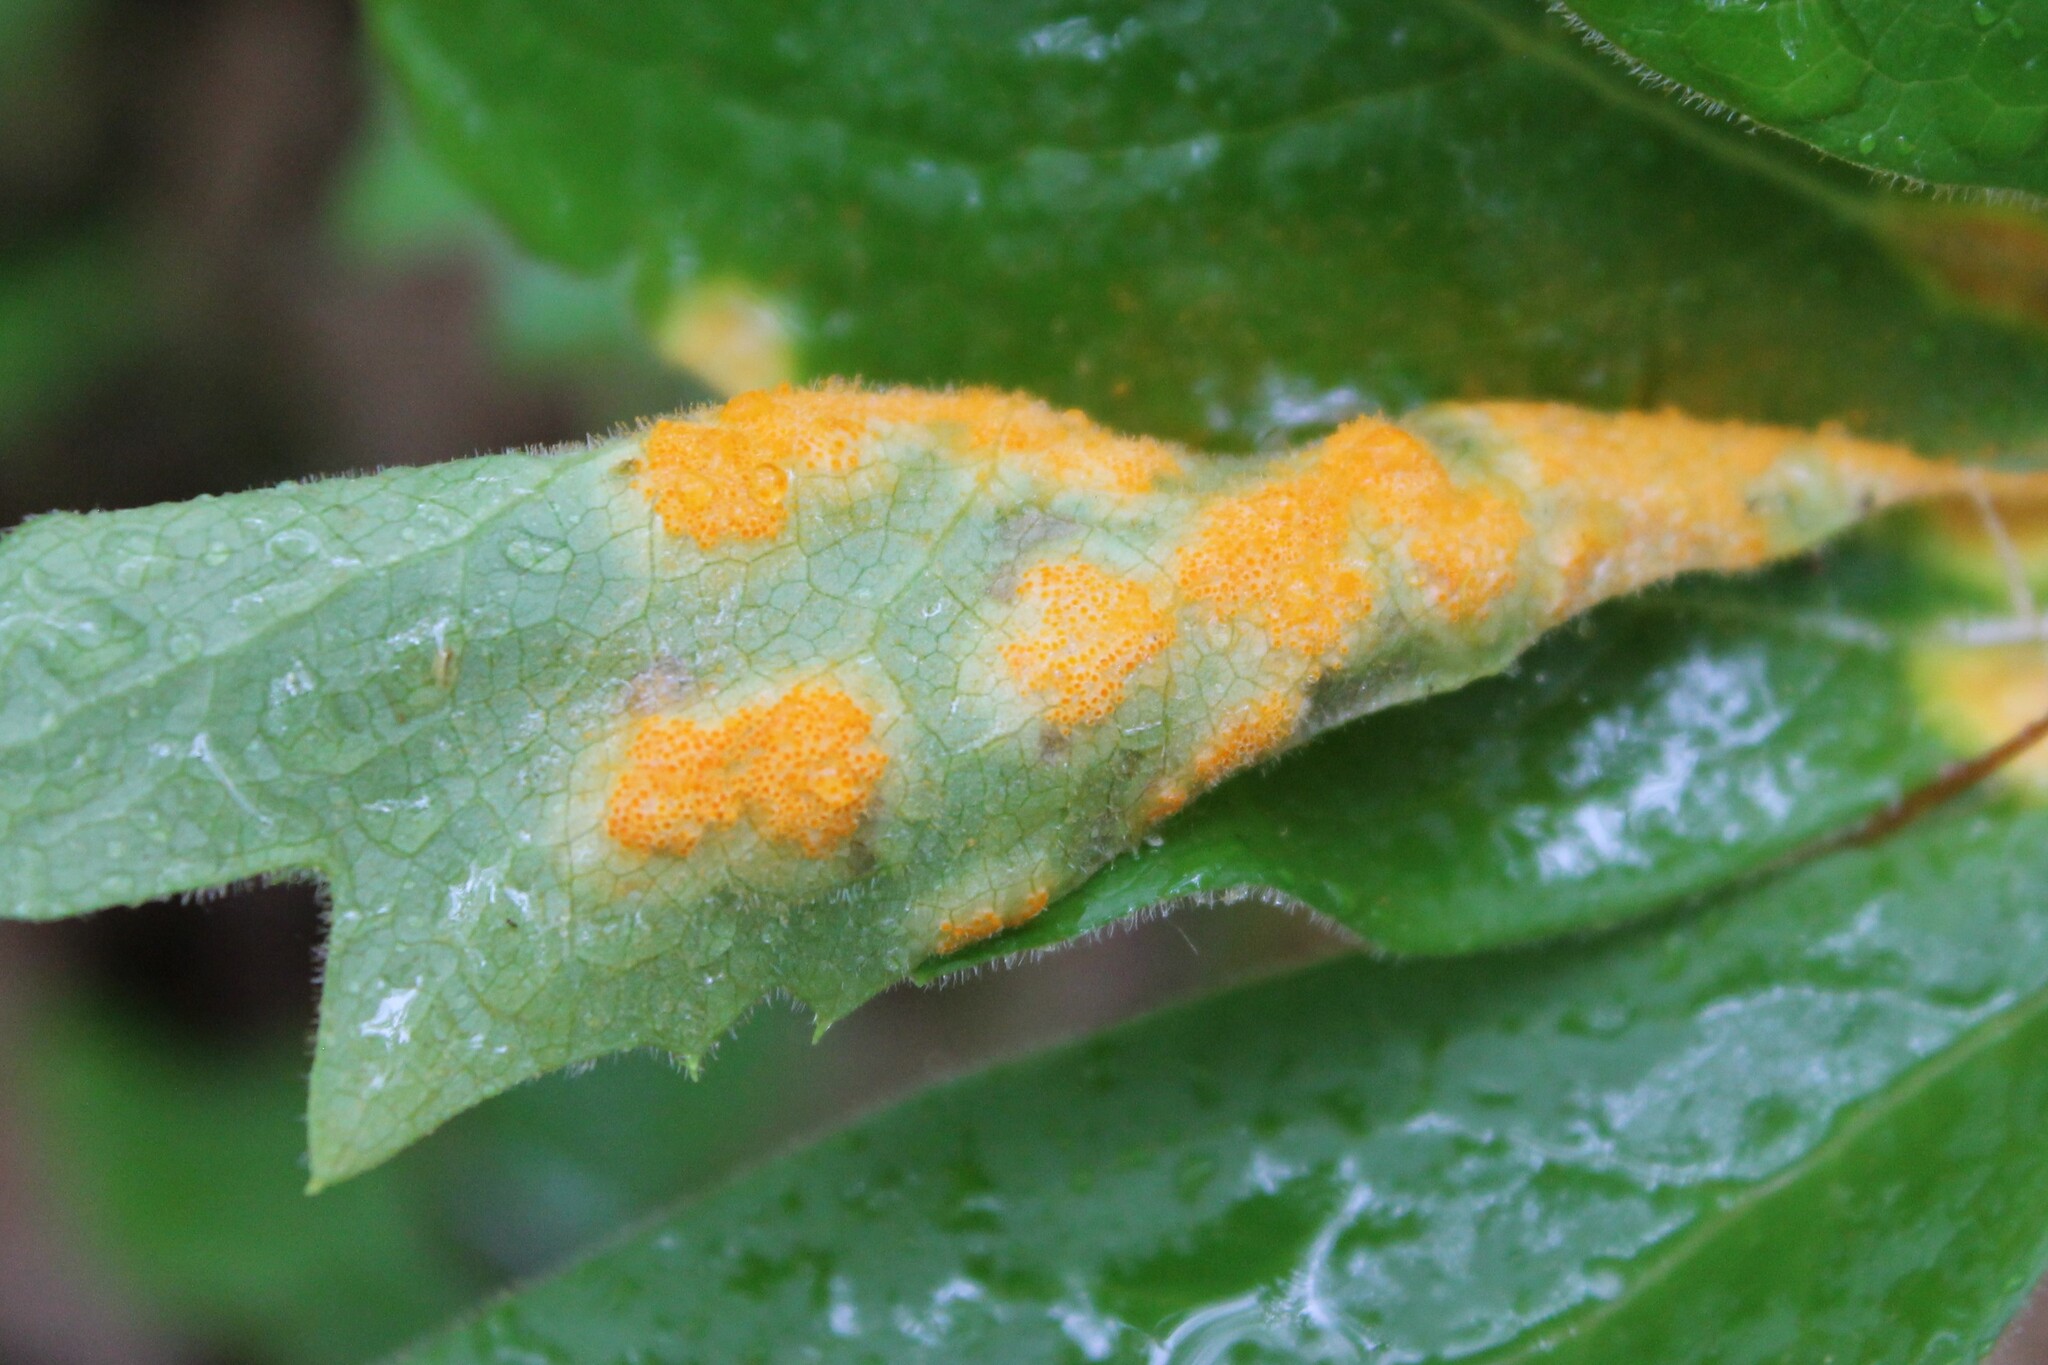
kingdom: Fungi
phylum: Basidiomycota
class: Pucciniomycetes
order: Pucciniales
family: Pucciniaceae
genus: Puccinia
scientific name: Puccinia podophylli
